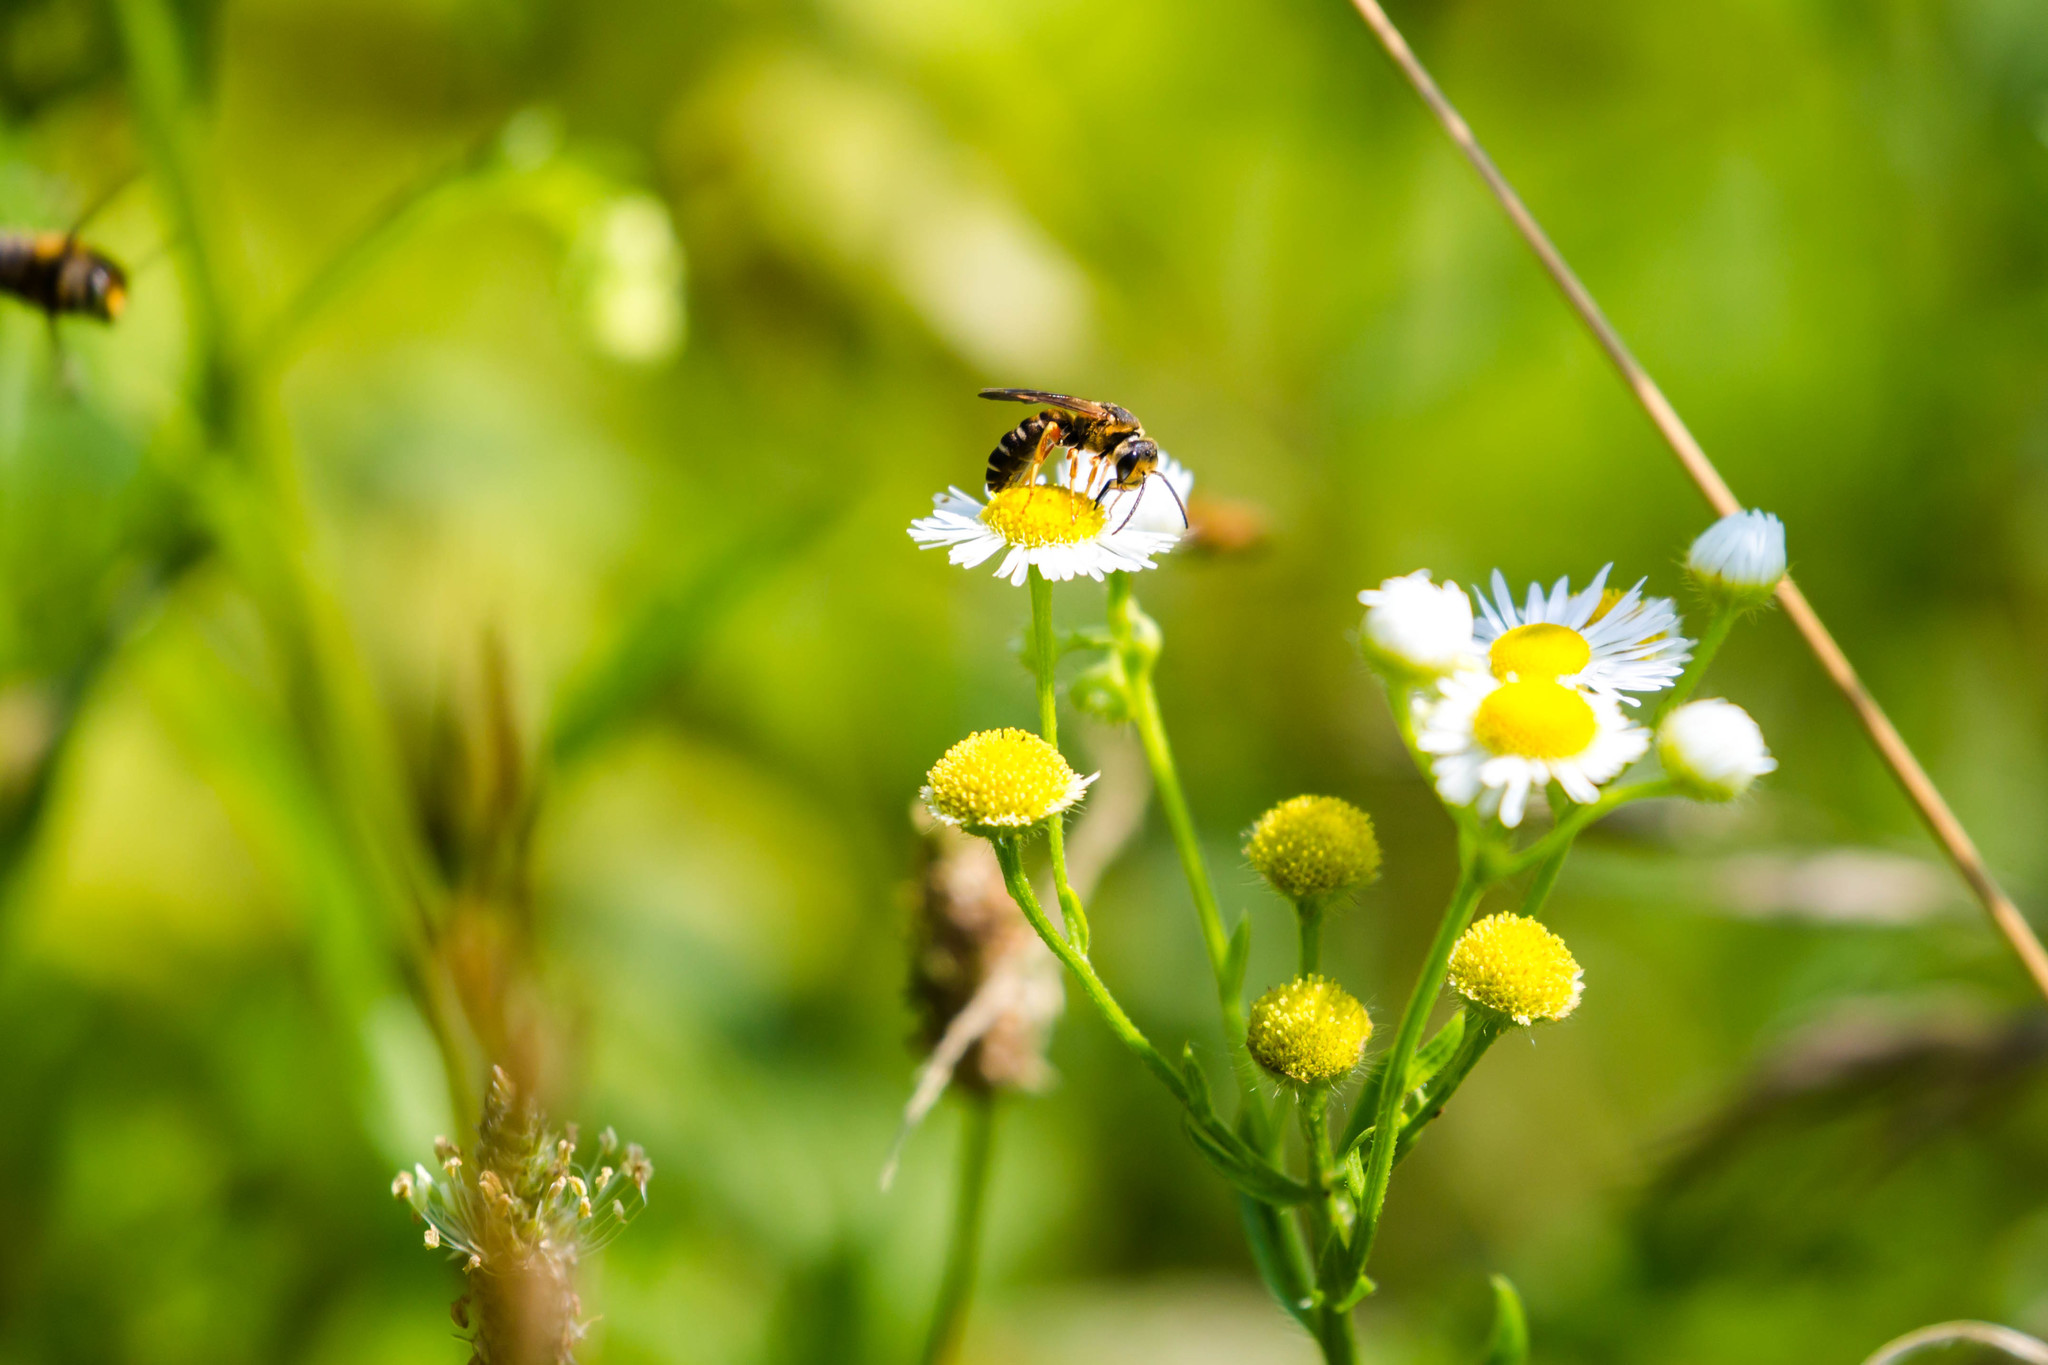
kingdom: Animalia
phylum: Arthropoda
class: Insecta
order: Hymenoptera
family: Halictidae
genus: Halictus
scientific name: Halictus parallelus
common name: Parallel-striped sweat bee
